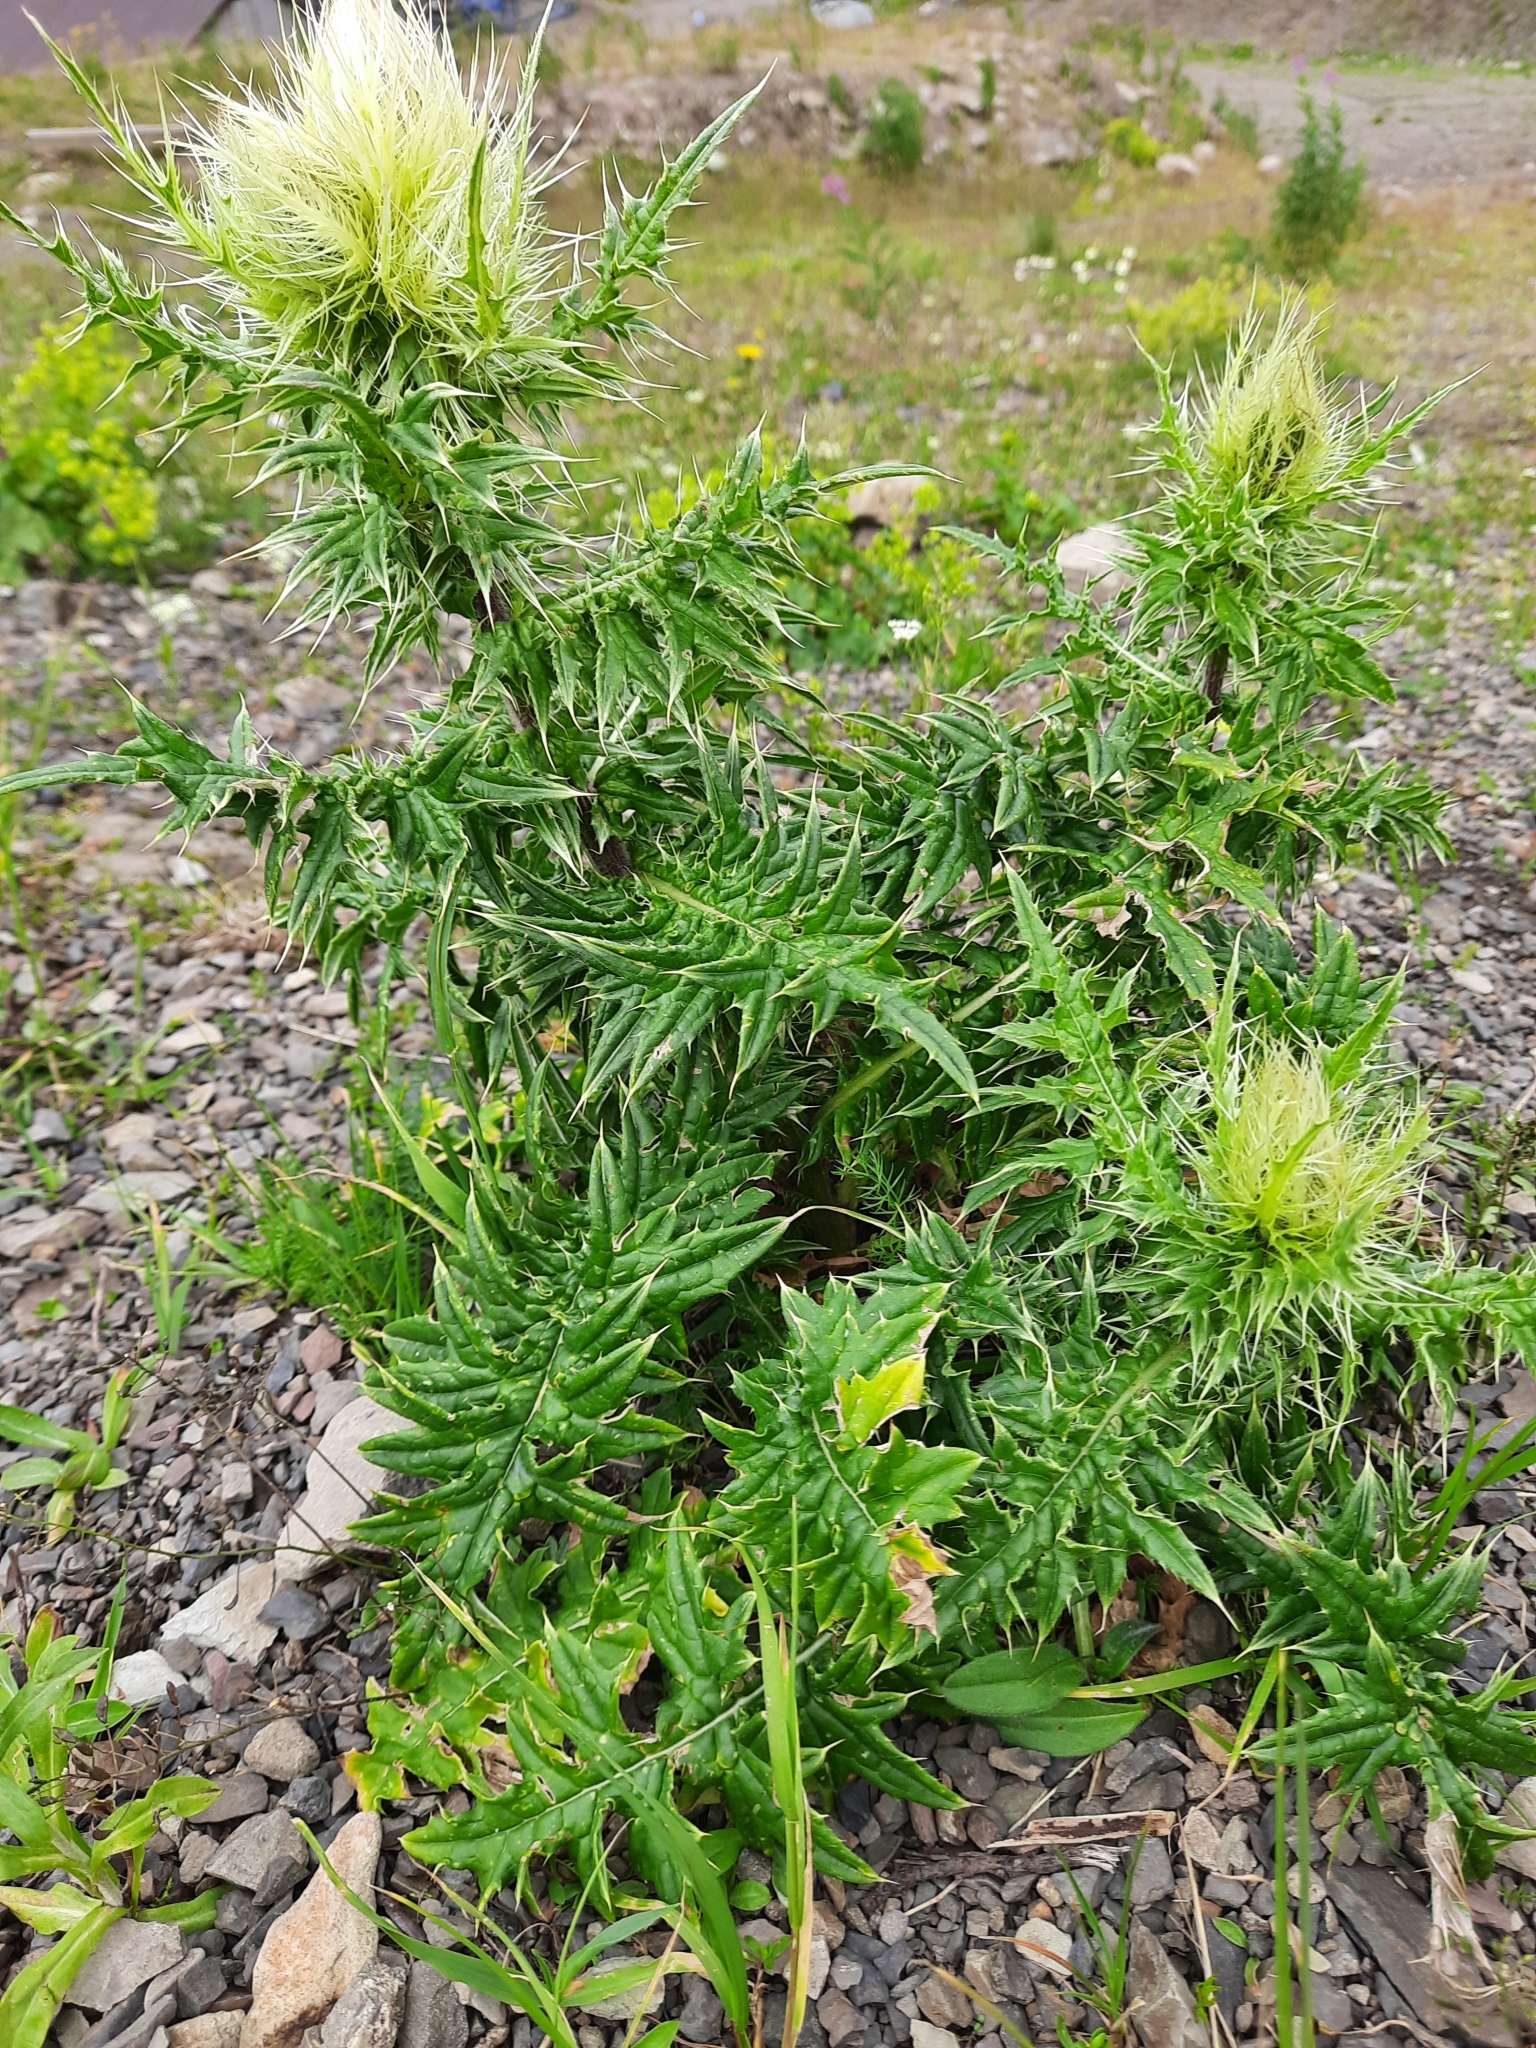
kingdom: Plantae
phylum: Tracheophyta
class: Magnoliopsida
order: Asterales
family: Asteraceae
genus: Cirsium
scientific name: Cirsium obvallatum
